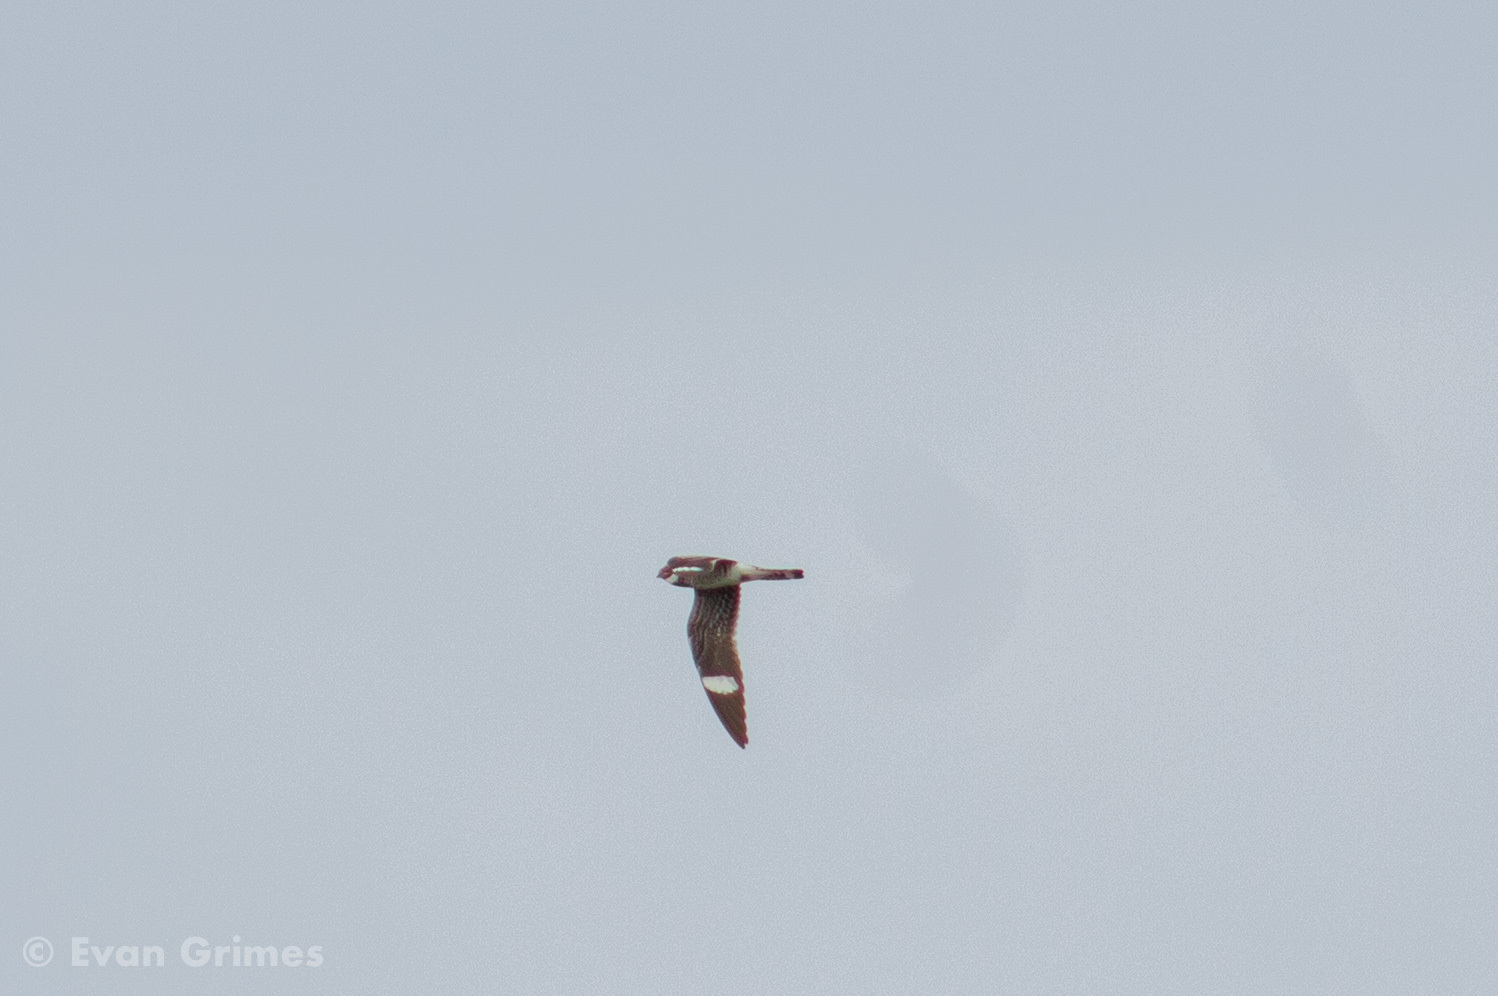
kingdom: Animalia
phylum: Chordata
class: Aves
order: Caprimulgiformes
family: Caprimulgidae
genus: Chordeiles
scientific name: Chordeiles minor
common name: Common nighthawk
